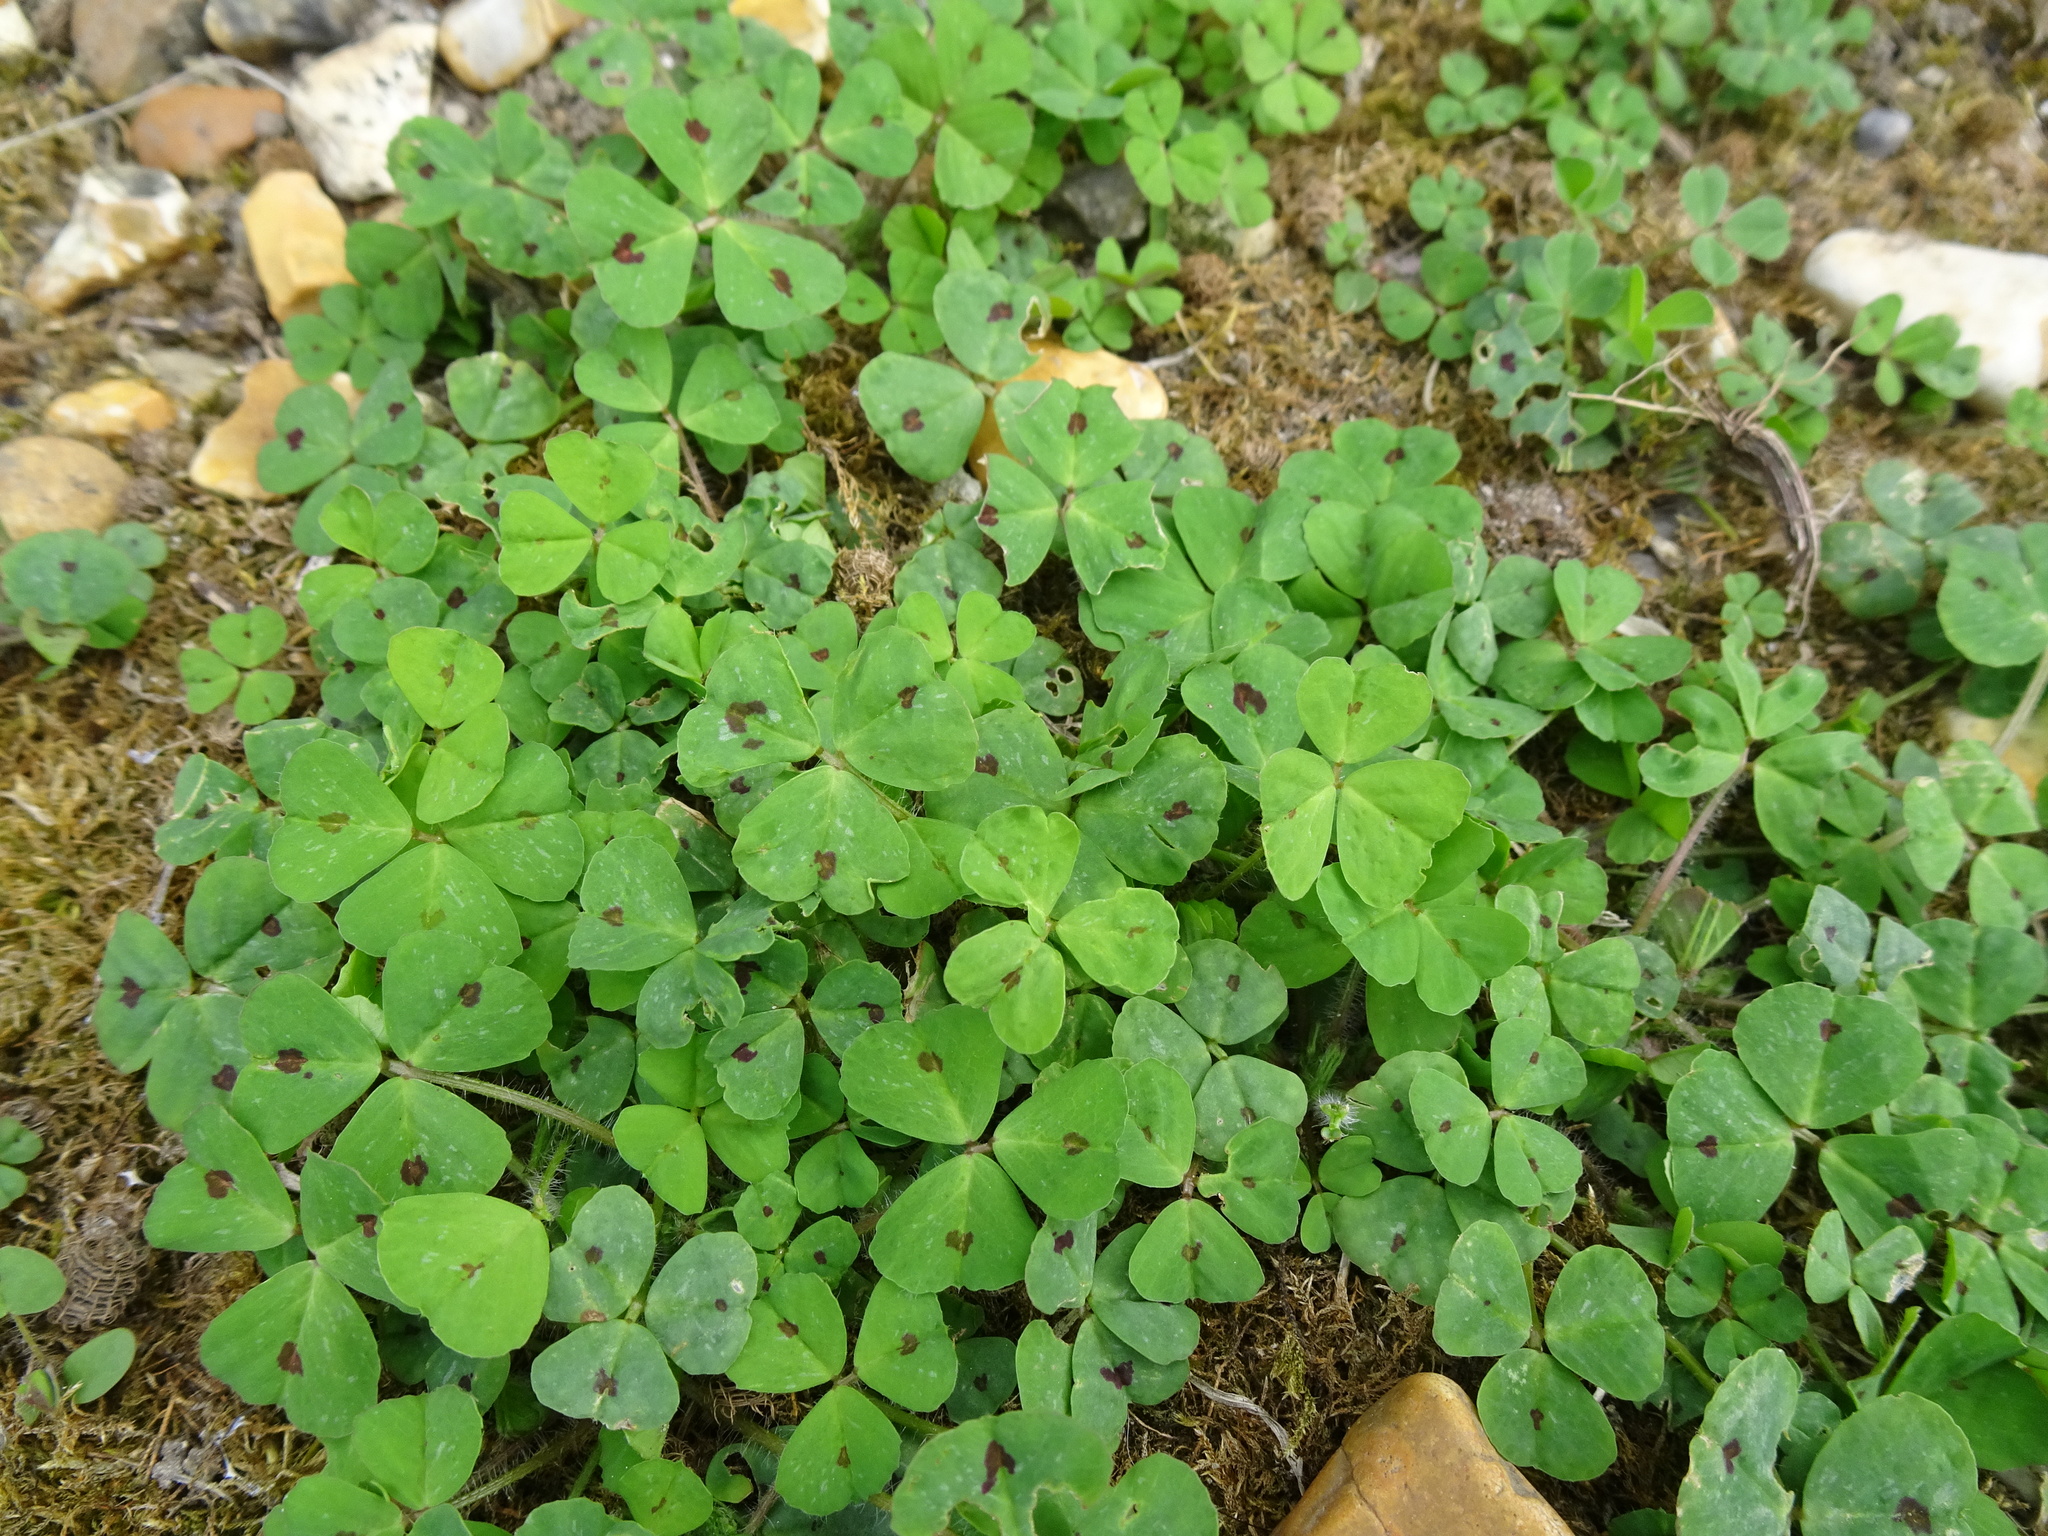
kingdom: Plantae
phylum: Tracheophyta
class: Magnoliopsida
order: Fabales
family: Fabaceae
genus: Medicago
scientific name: Medicago arabica
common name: Spotted medick
